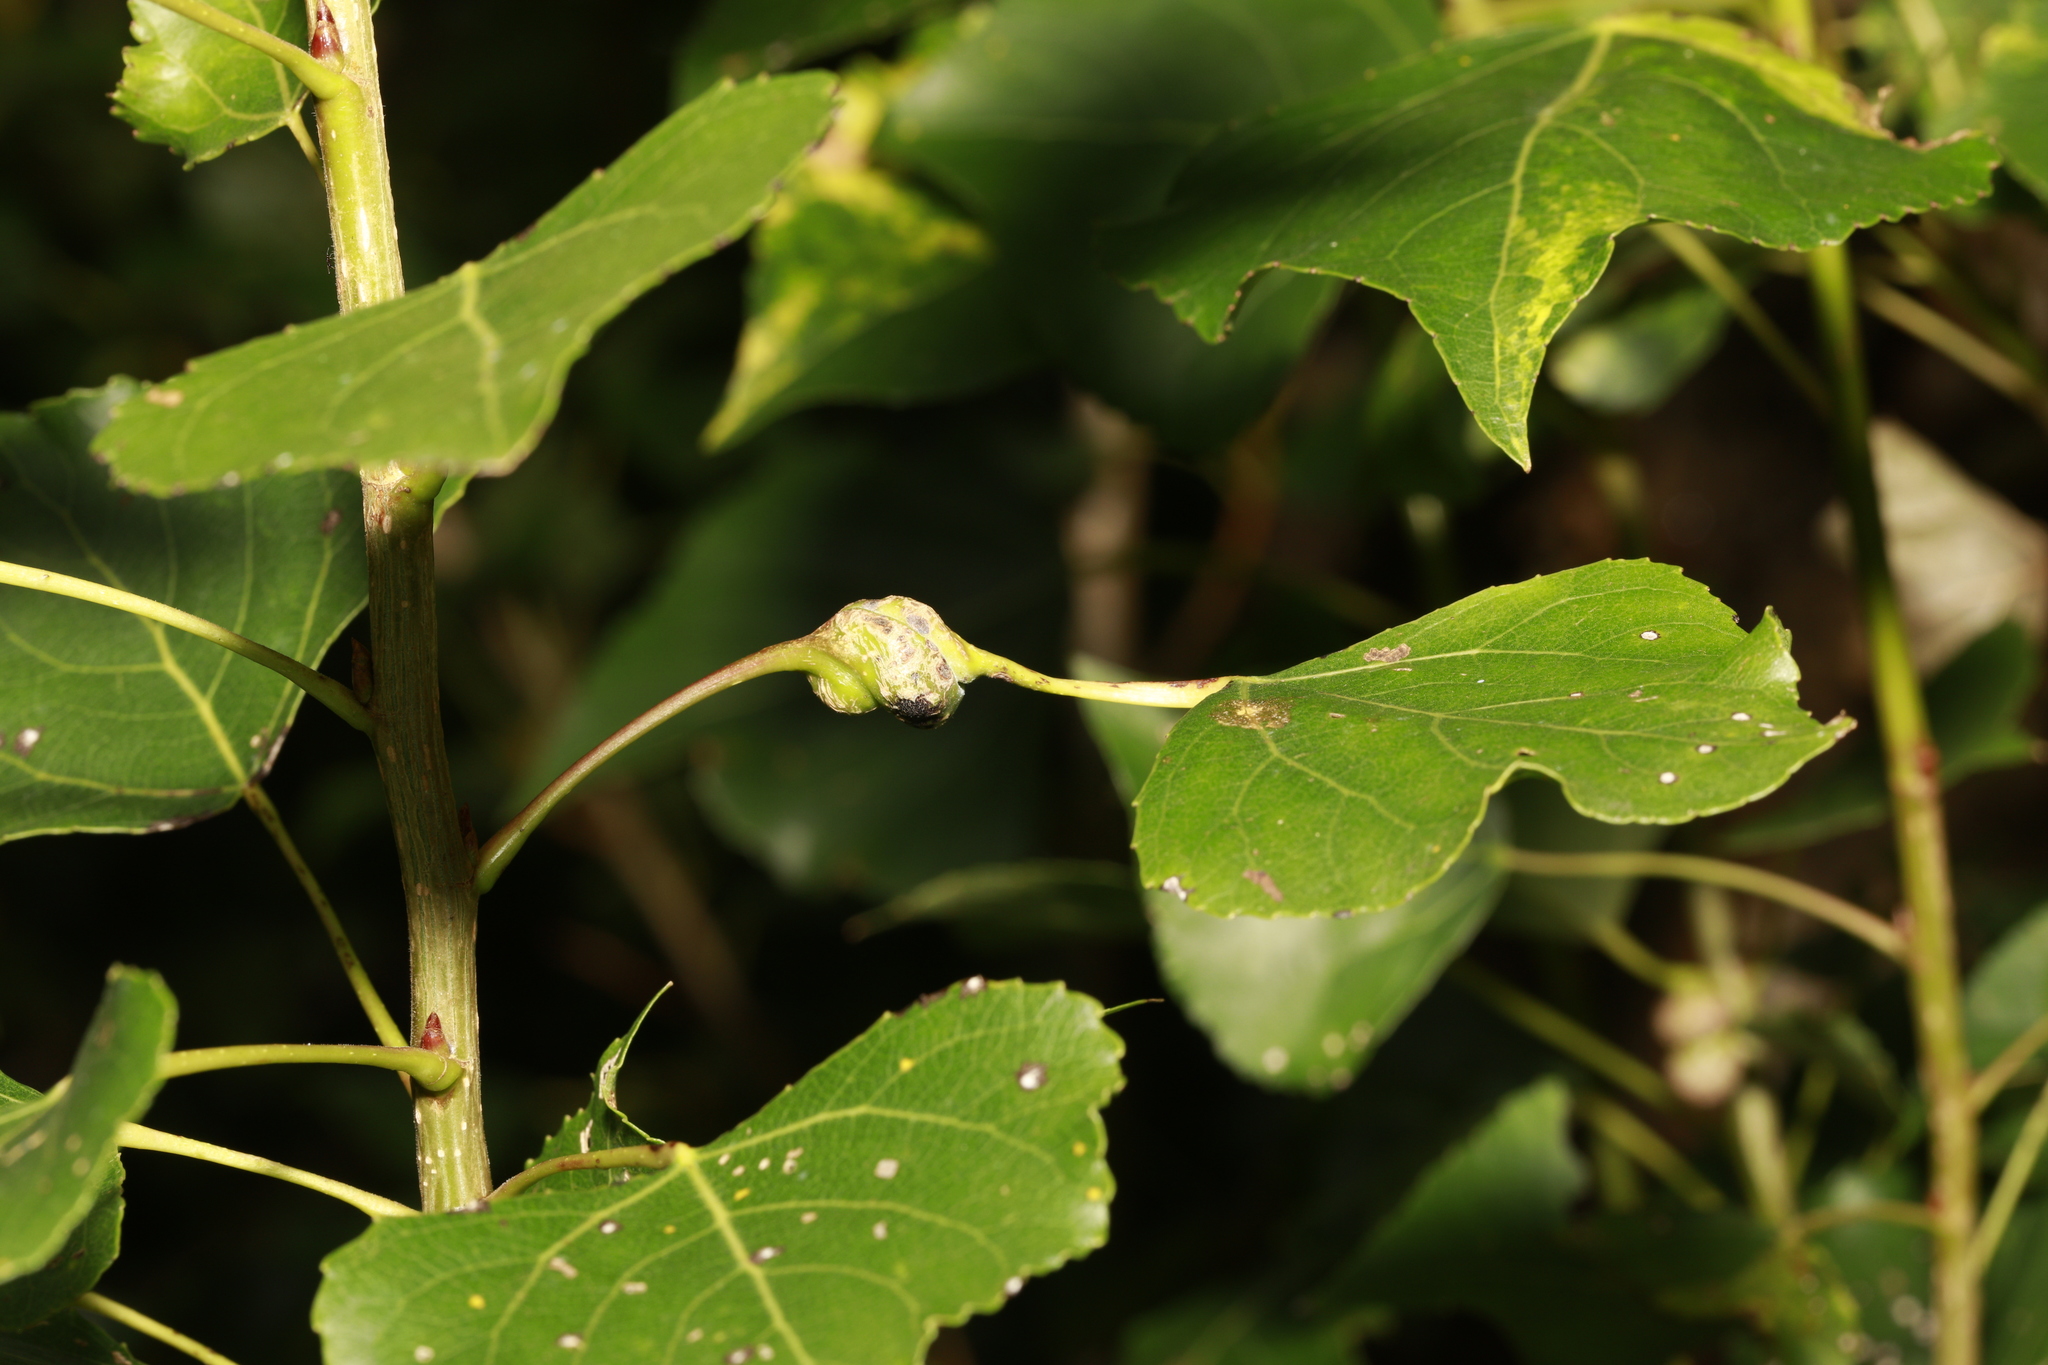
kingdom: Animalia
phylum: Arthropoda
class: Insecta
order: Hemiptera
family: Aphididae
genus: Pemphigus
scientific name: Pemphigus spyrothecae
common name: Aphid
